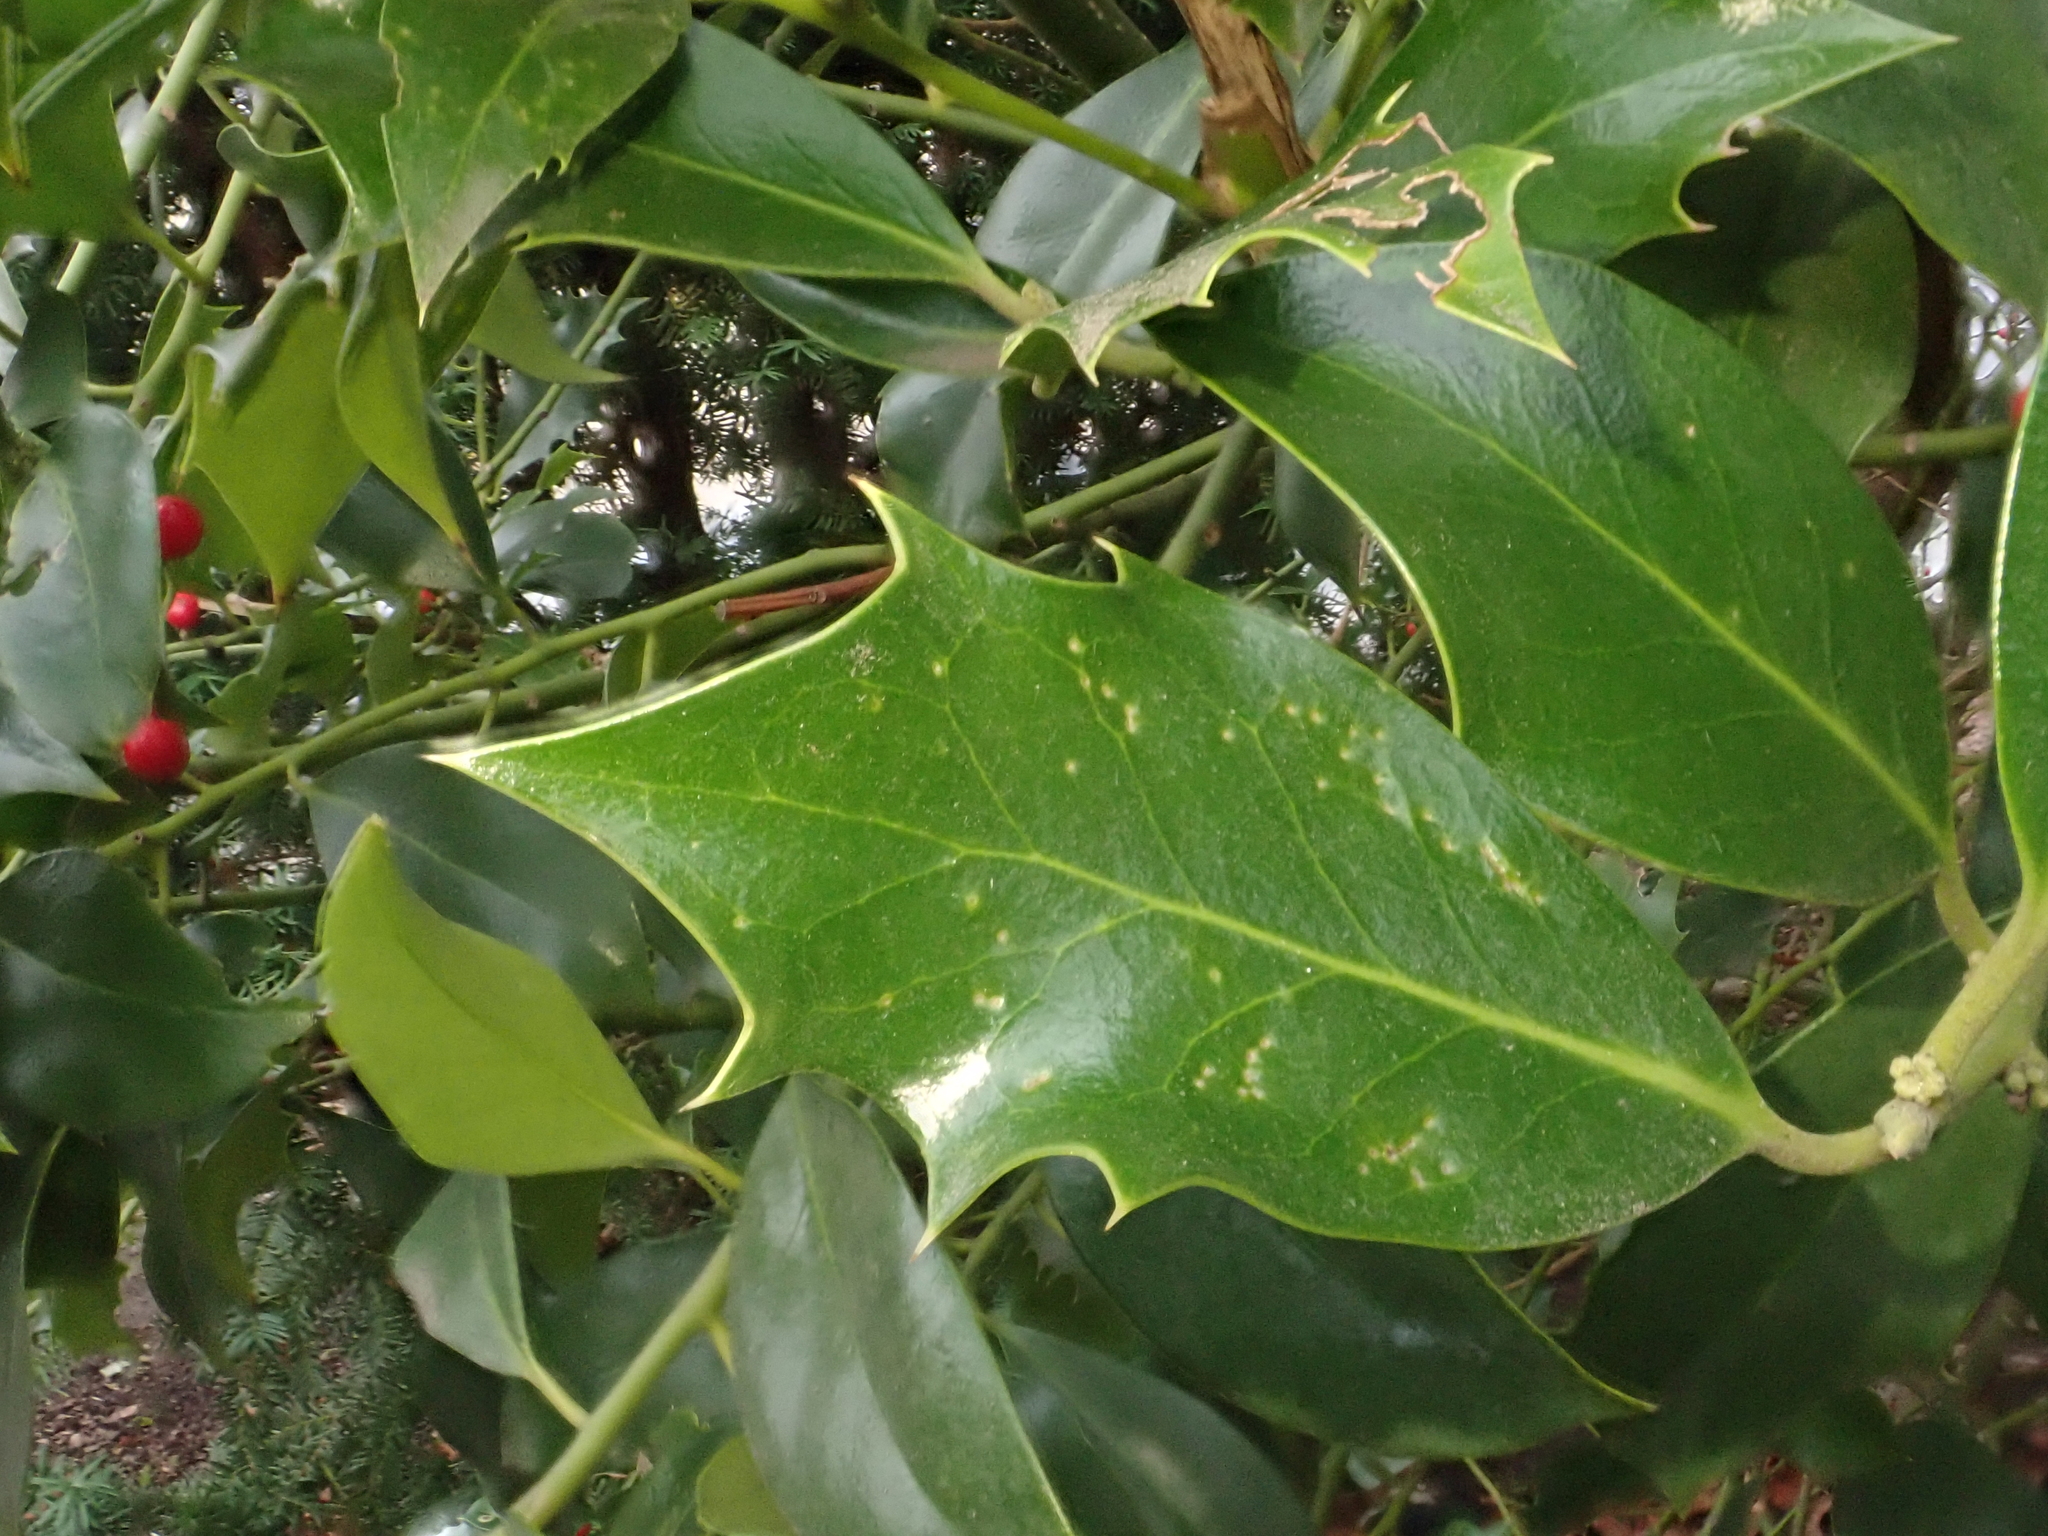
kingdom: Plantae
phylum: Tracheophyta
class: Magnoliopsida
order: Aquifoliales
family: Aquifoliaceae
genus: Ilex
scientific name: Ilex aquifolium
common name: English holly
